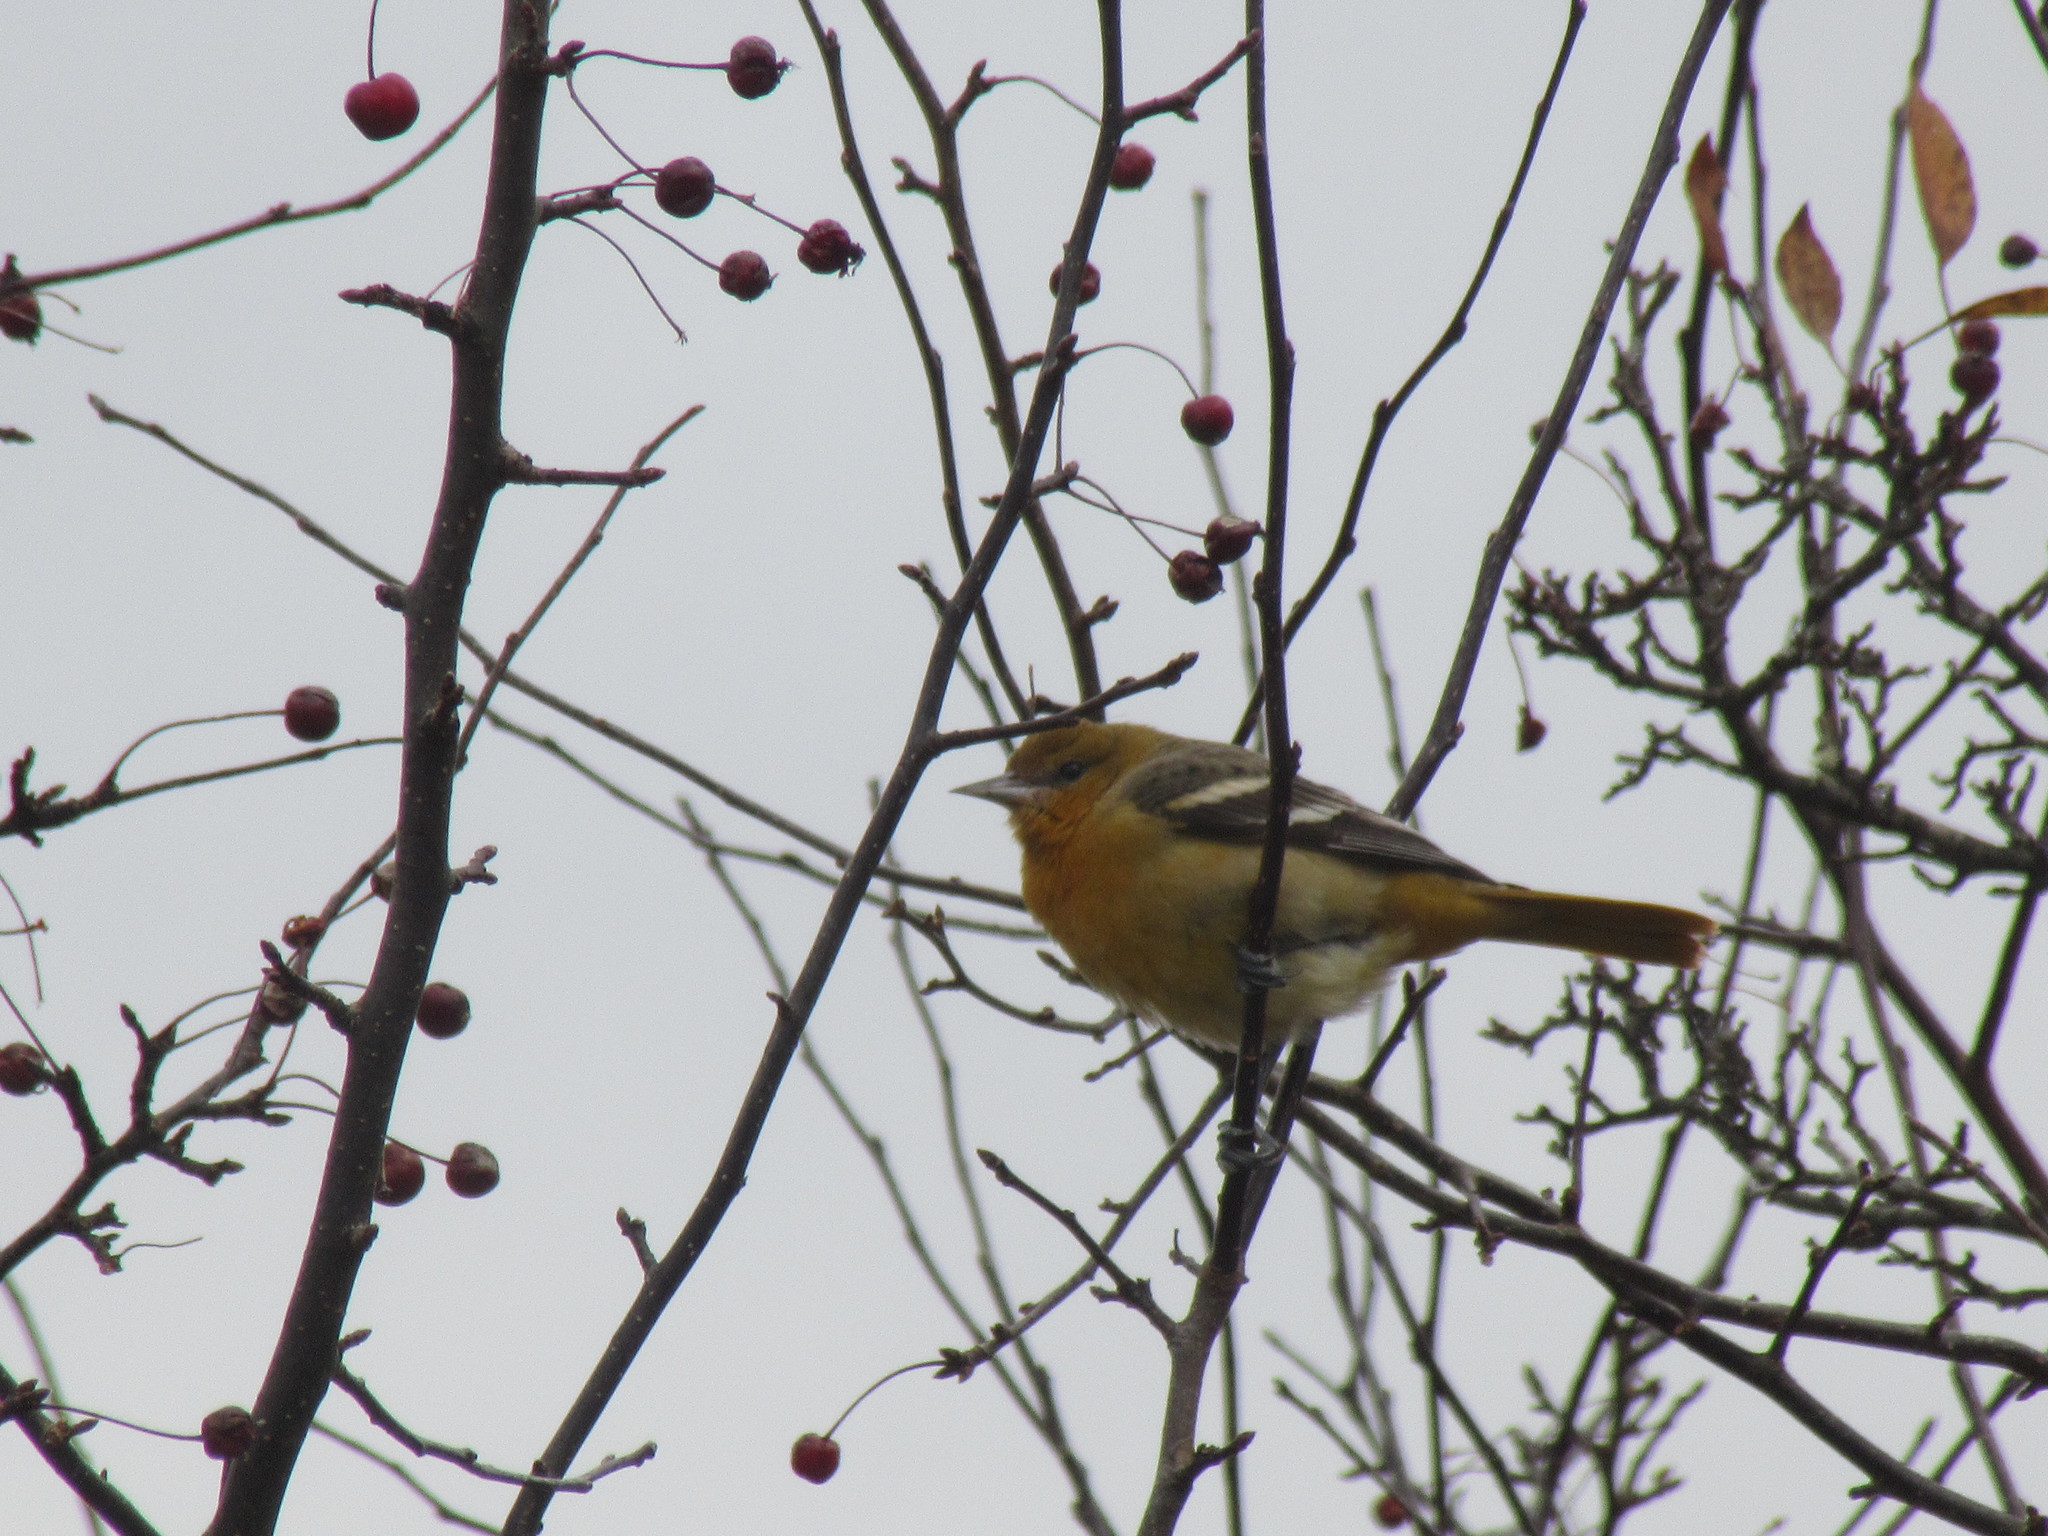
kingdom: Animalia
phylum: Chordata
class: Aves
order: Passeriformes
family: Icteridae
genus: Icterus
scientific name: Icterus galbula
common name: Baltimore oriole
